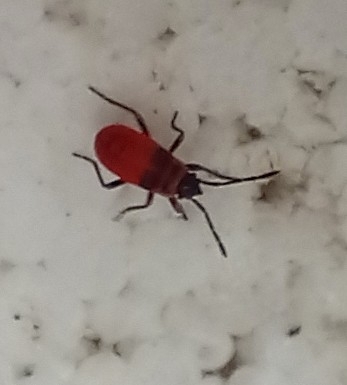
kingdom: Animalia
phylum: Arthropoda
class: Insecta
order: Hemiptera
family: Pyrrhocoridae
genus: Pyrrhocoris
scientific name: Pyrrhocoris apterus
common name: Firebug
